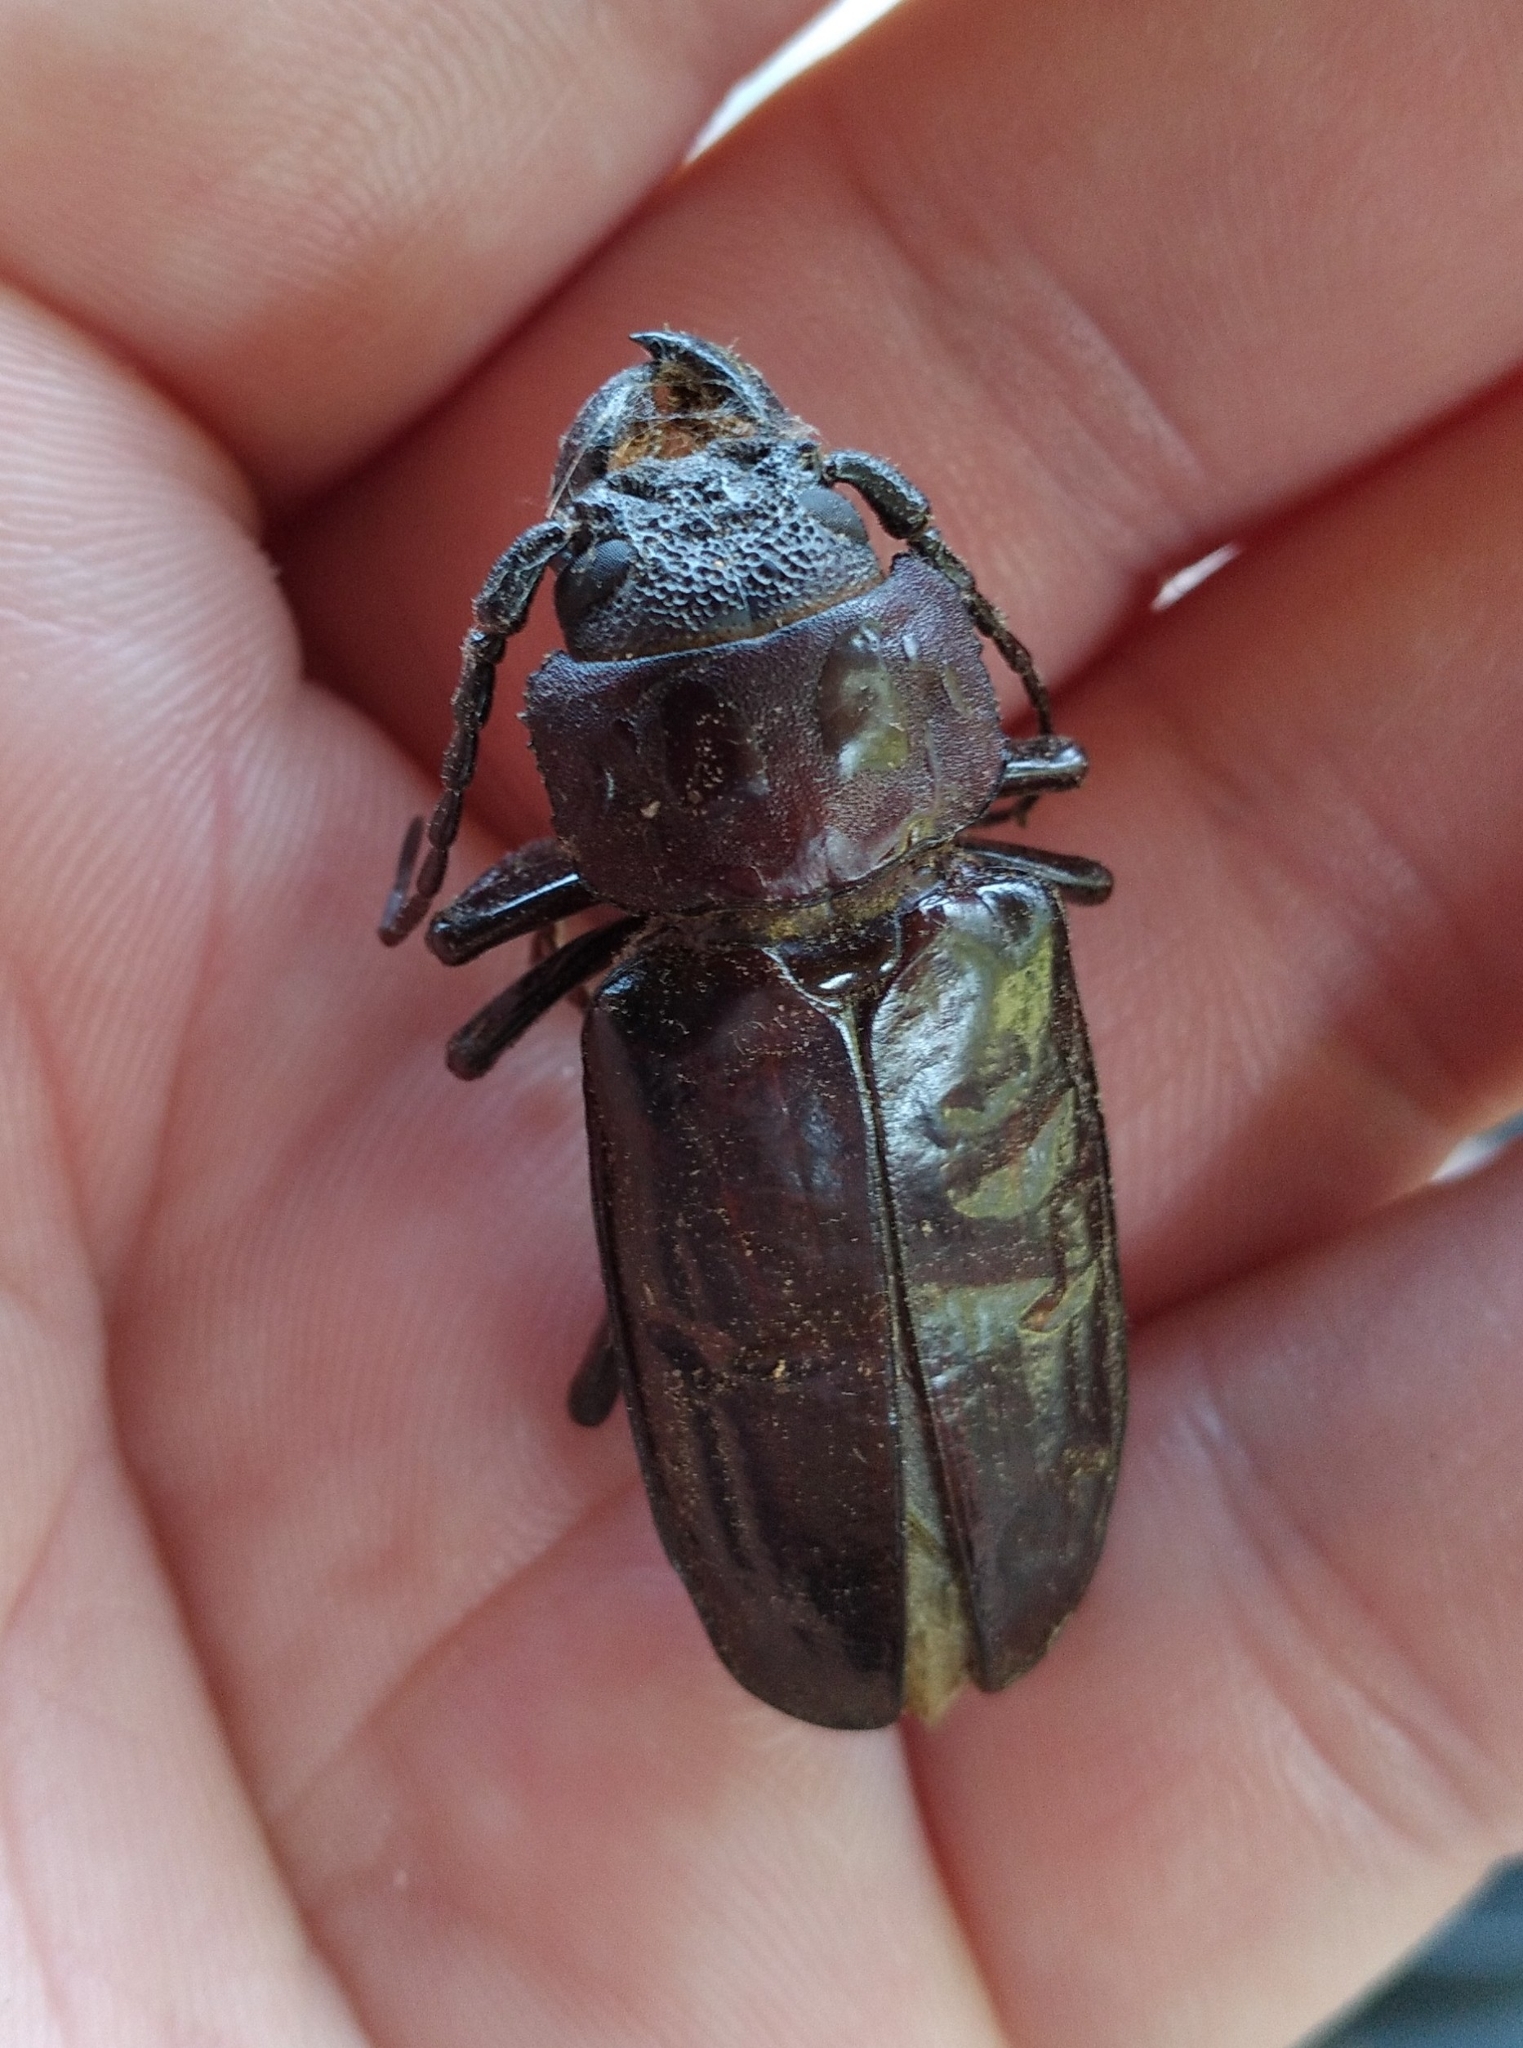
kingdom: Animalia
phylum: Arthropoda
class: Insecta
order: Coleoptera
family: Cerambycidae
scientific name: Cerambycidae
